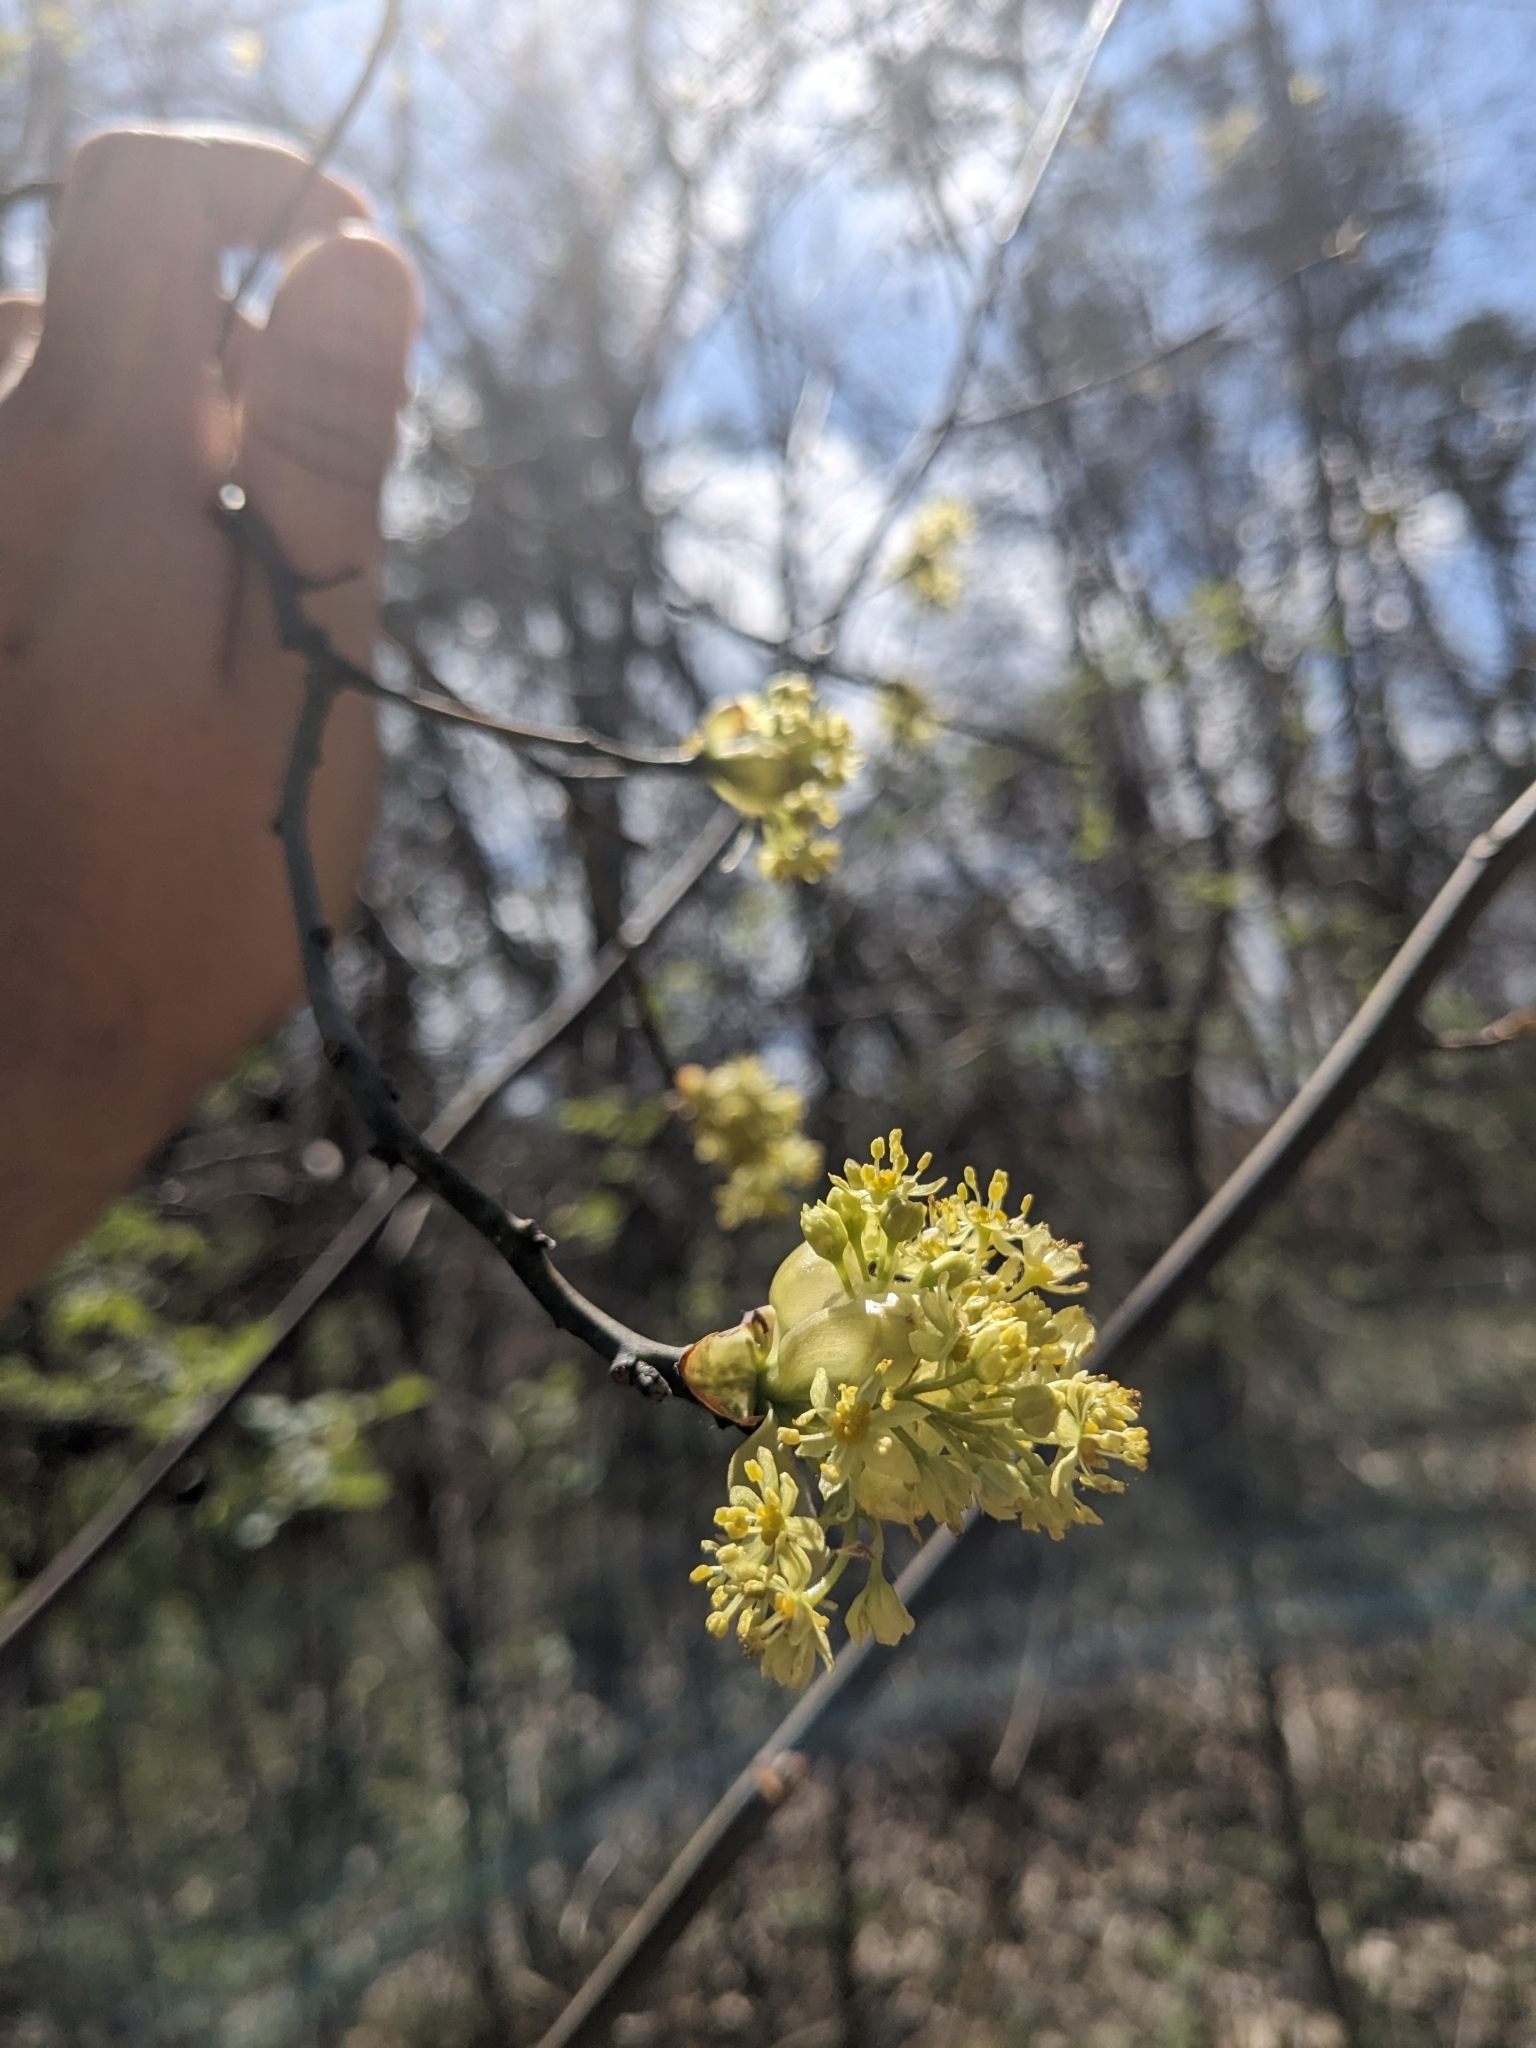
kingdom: Plantae
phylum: Tracheophyta
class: Magnoliopsida
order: Laurales
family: Lauraceae
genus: Sassafras
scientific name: Sassafras albidum
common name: Sassafras
